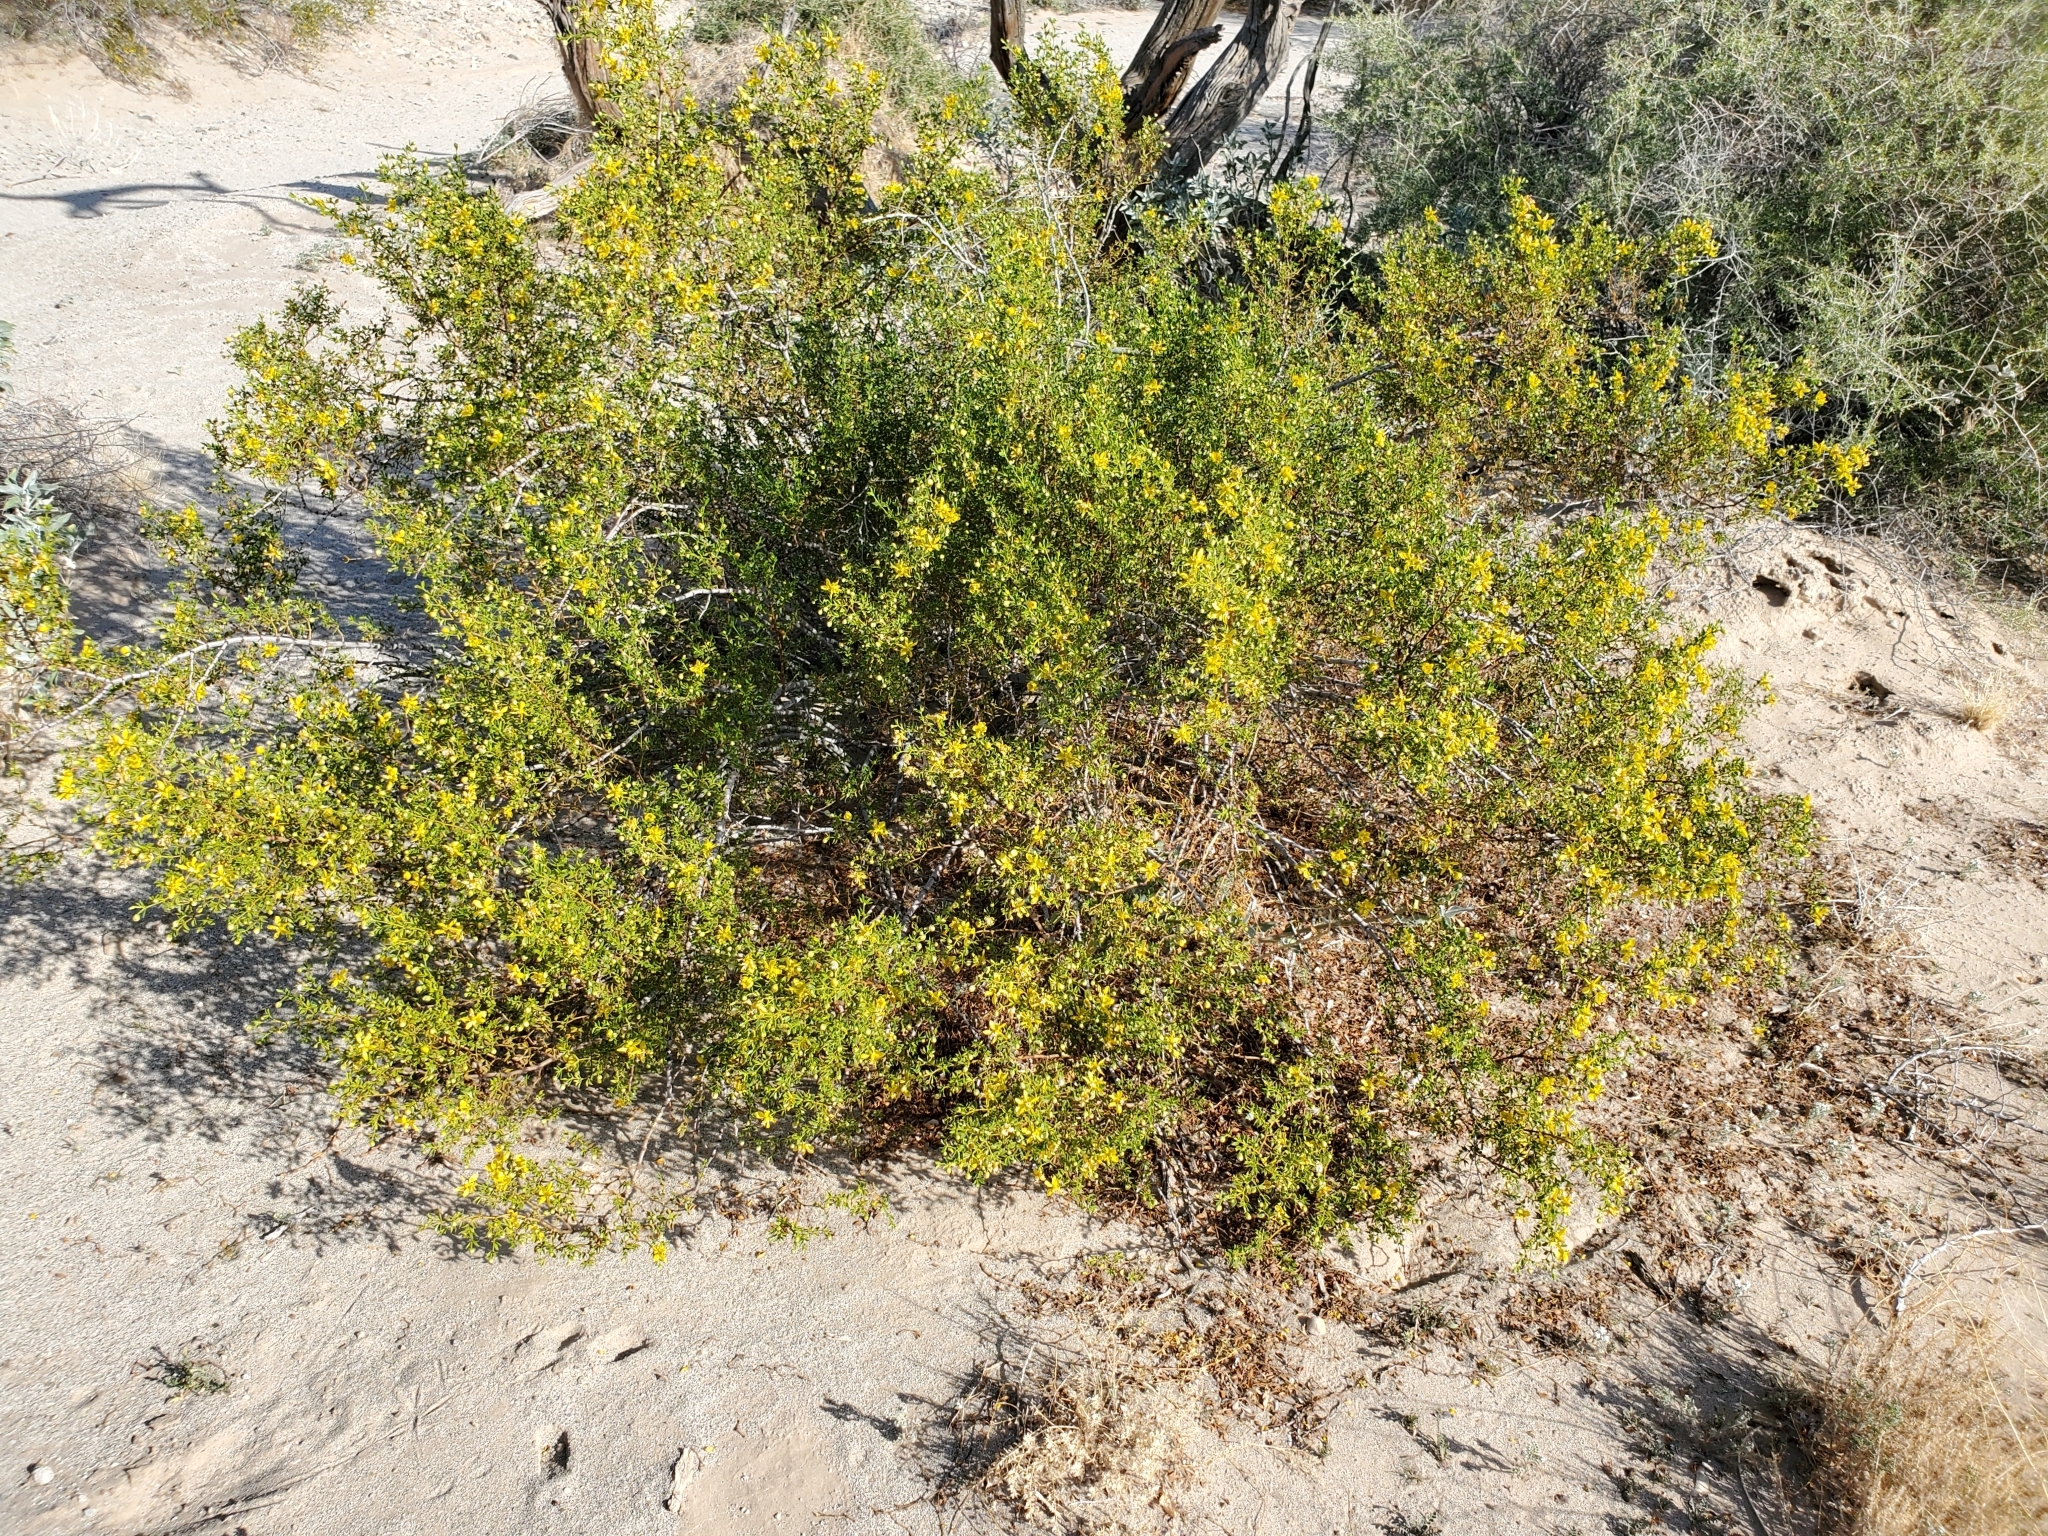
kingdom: Plantae
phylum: Tracheophyta
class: Magnoliopsida
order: Zygophyllales
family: Zygophyllaceae
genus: Larrea
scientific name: Larrea tridentata
